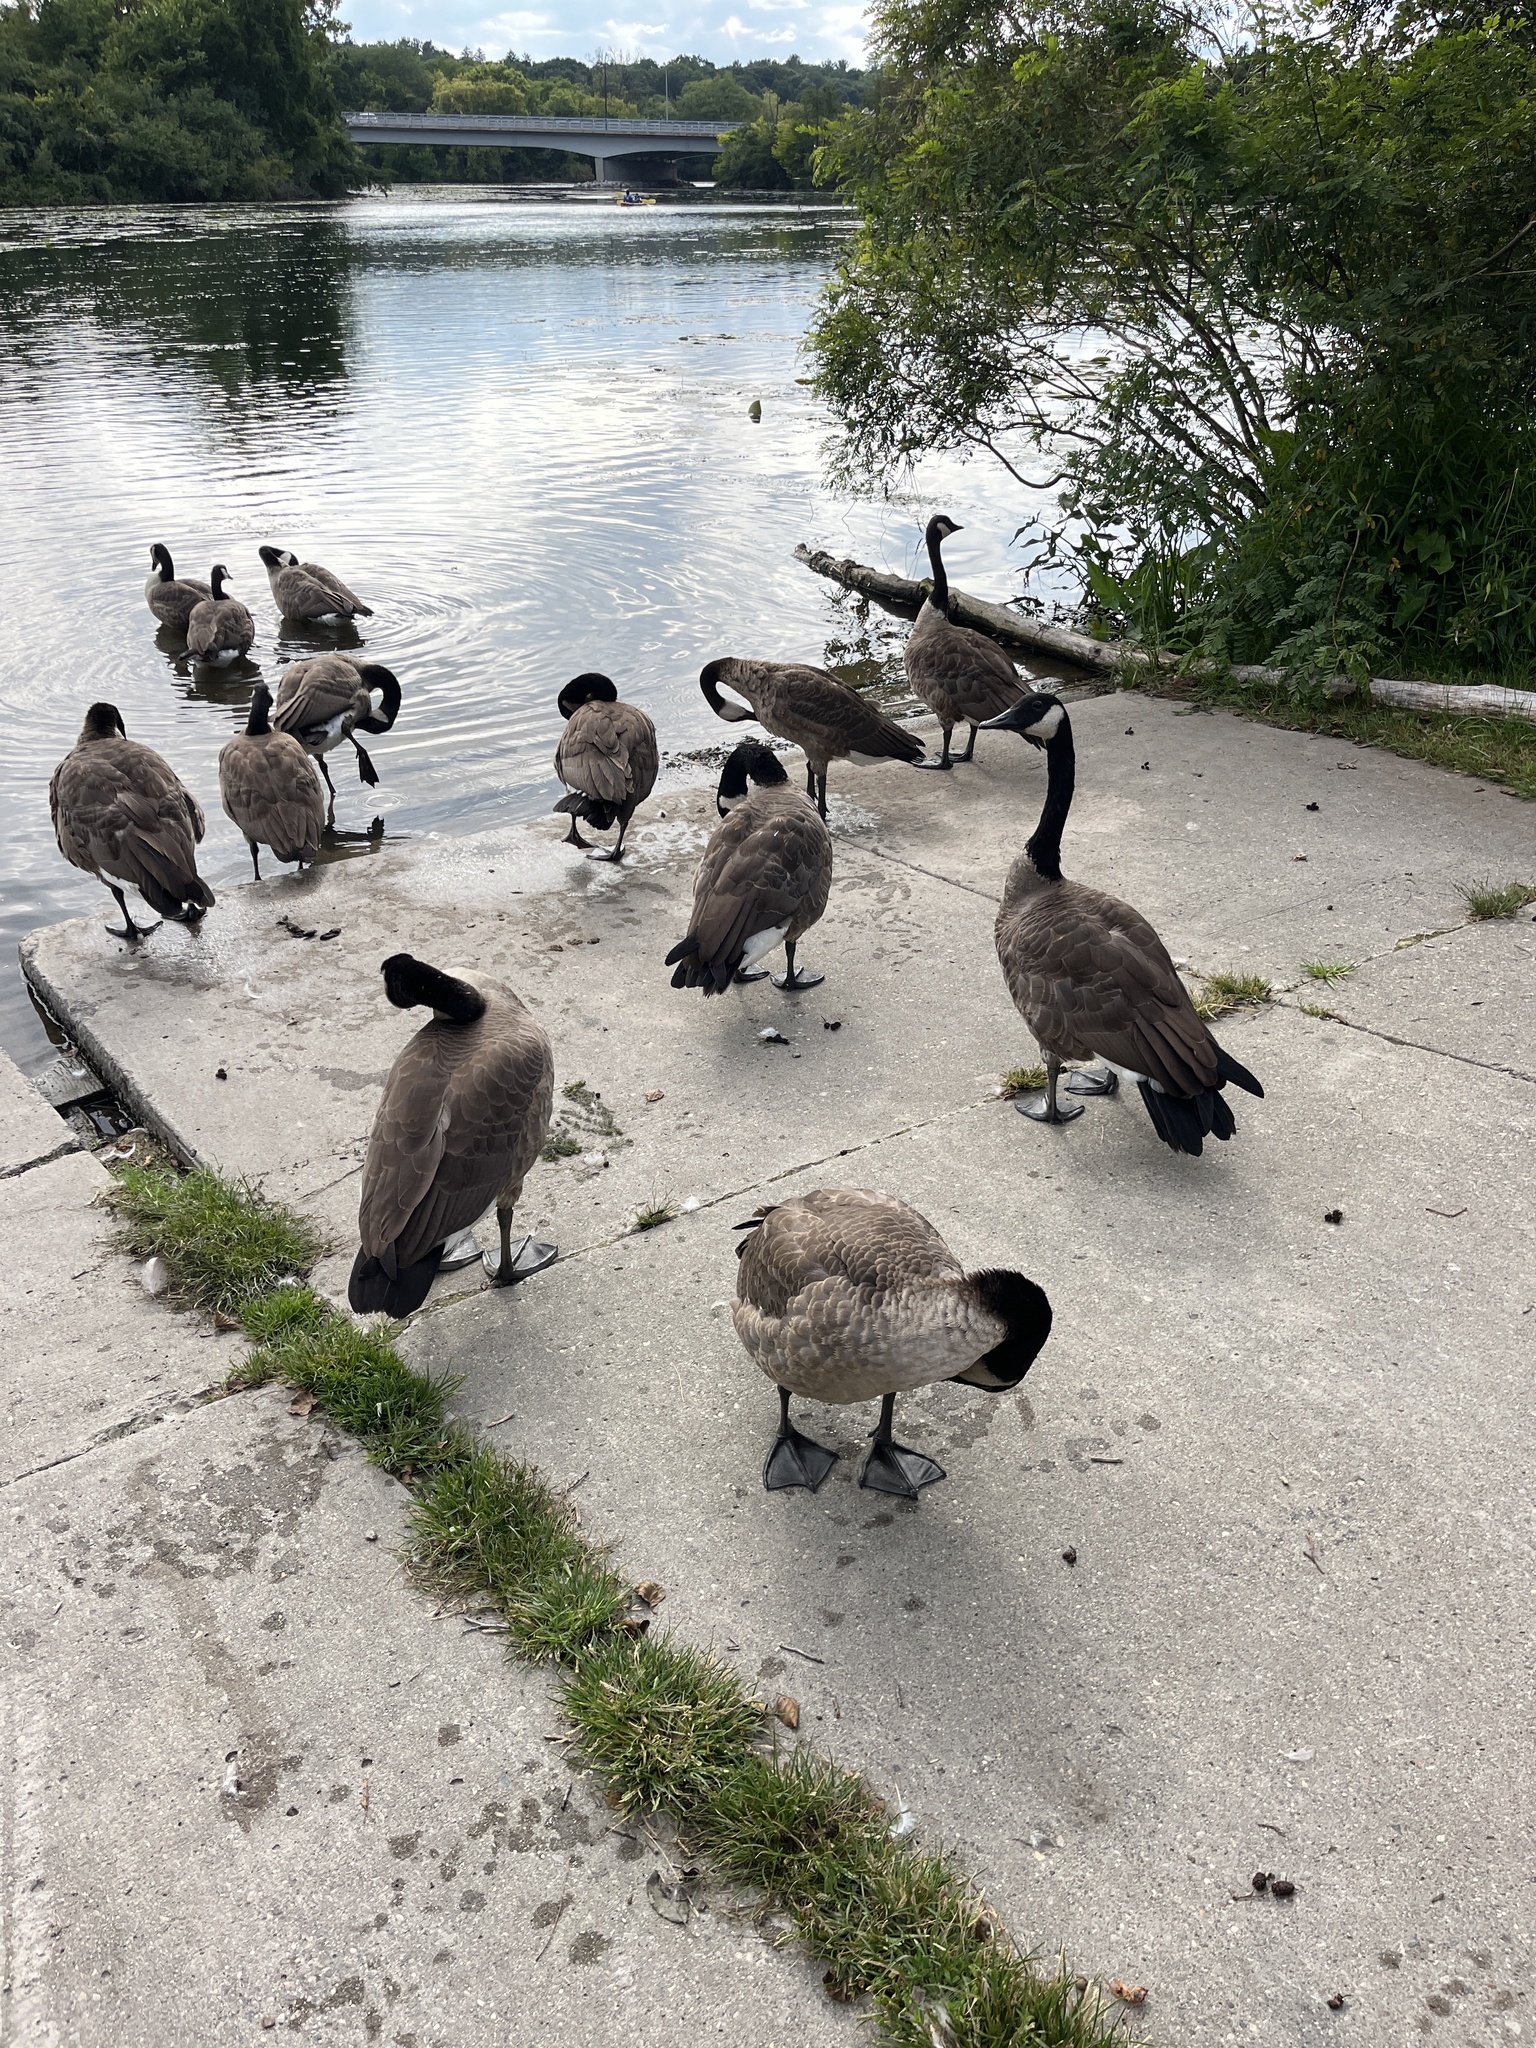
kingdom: Animalia
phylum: Chordata
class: Aves
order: Anseriformes
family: Anatidae
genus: Branta
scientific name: Branta canadensis
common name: Canada goose
